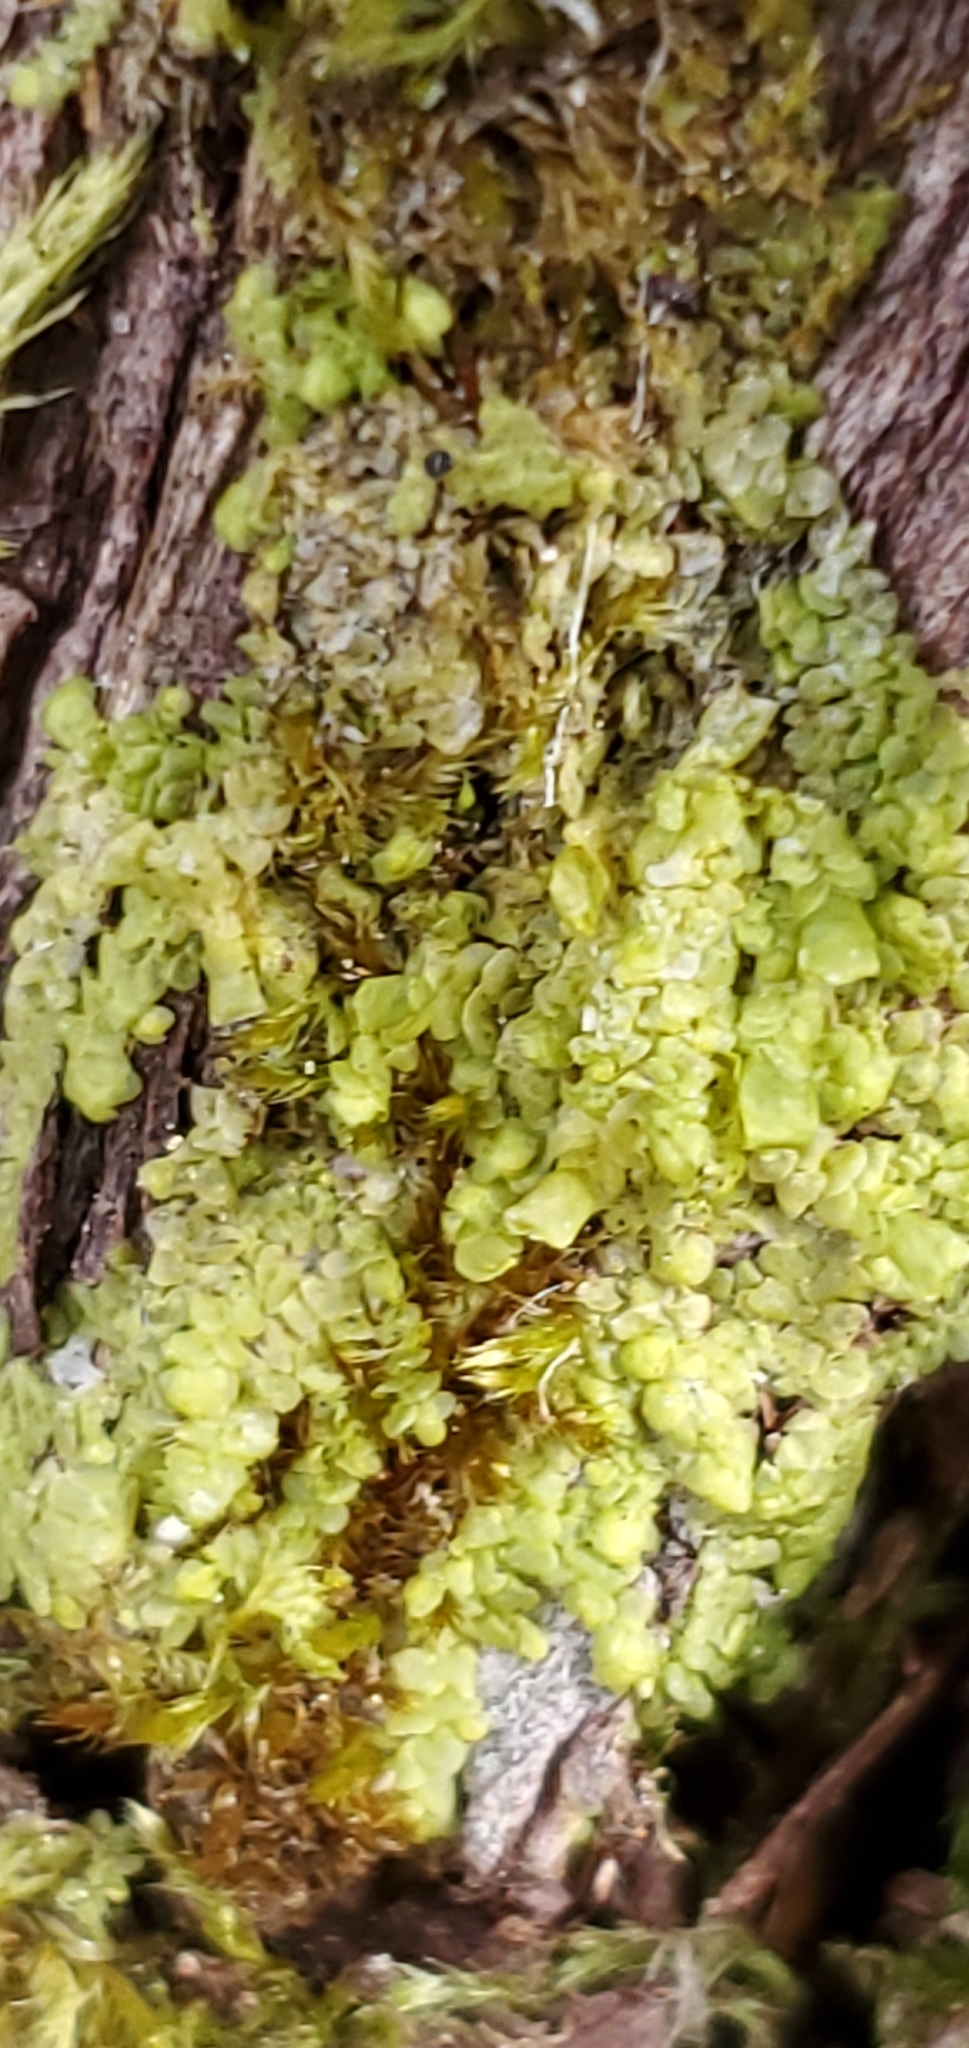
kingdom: Plantae
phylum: Marchantiophyta
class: Jungermanniopsida
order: Porellales
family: Radulaceae
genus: Radula
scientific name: Radula complanata
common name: Flat-leaved scalewort
